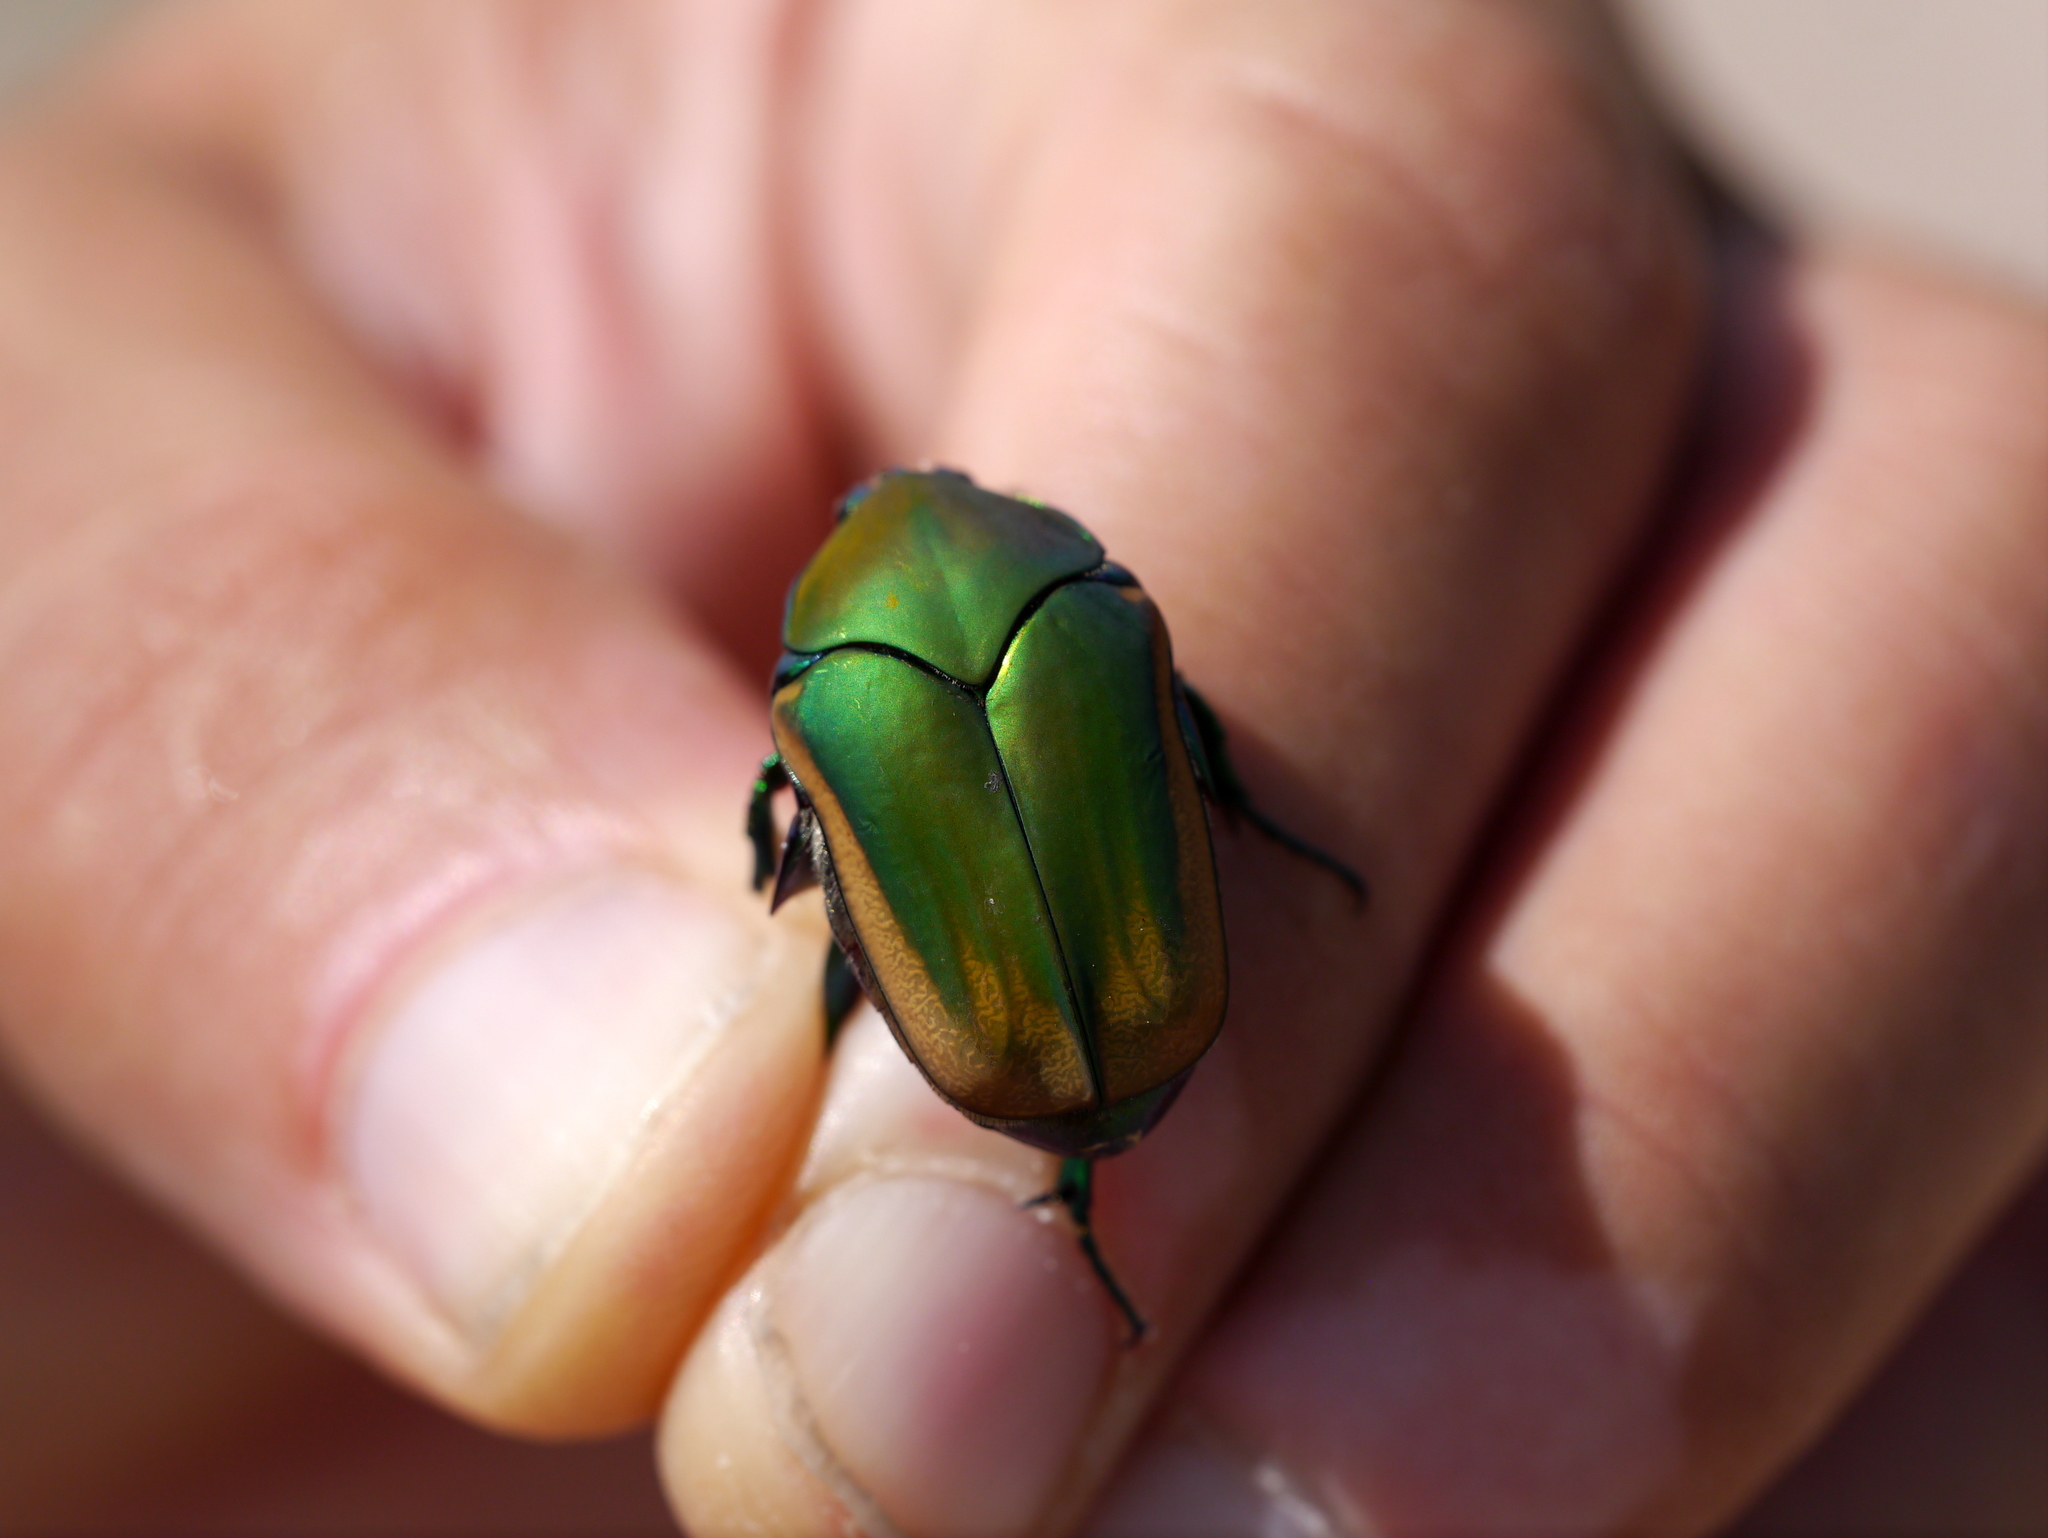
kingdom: Animalia
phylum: Arthropoda
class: Insecta
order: Coleoptera
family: Scarabaeidae
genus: Cotinis
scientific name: Cotinis mutabilis
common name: Figeater beetle
